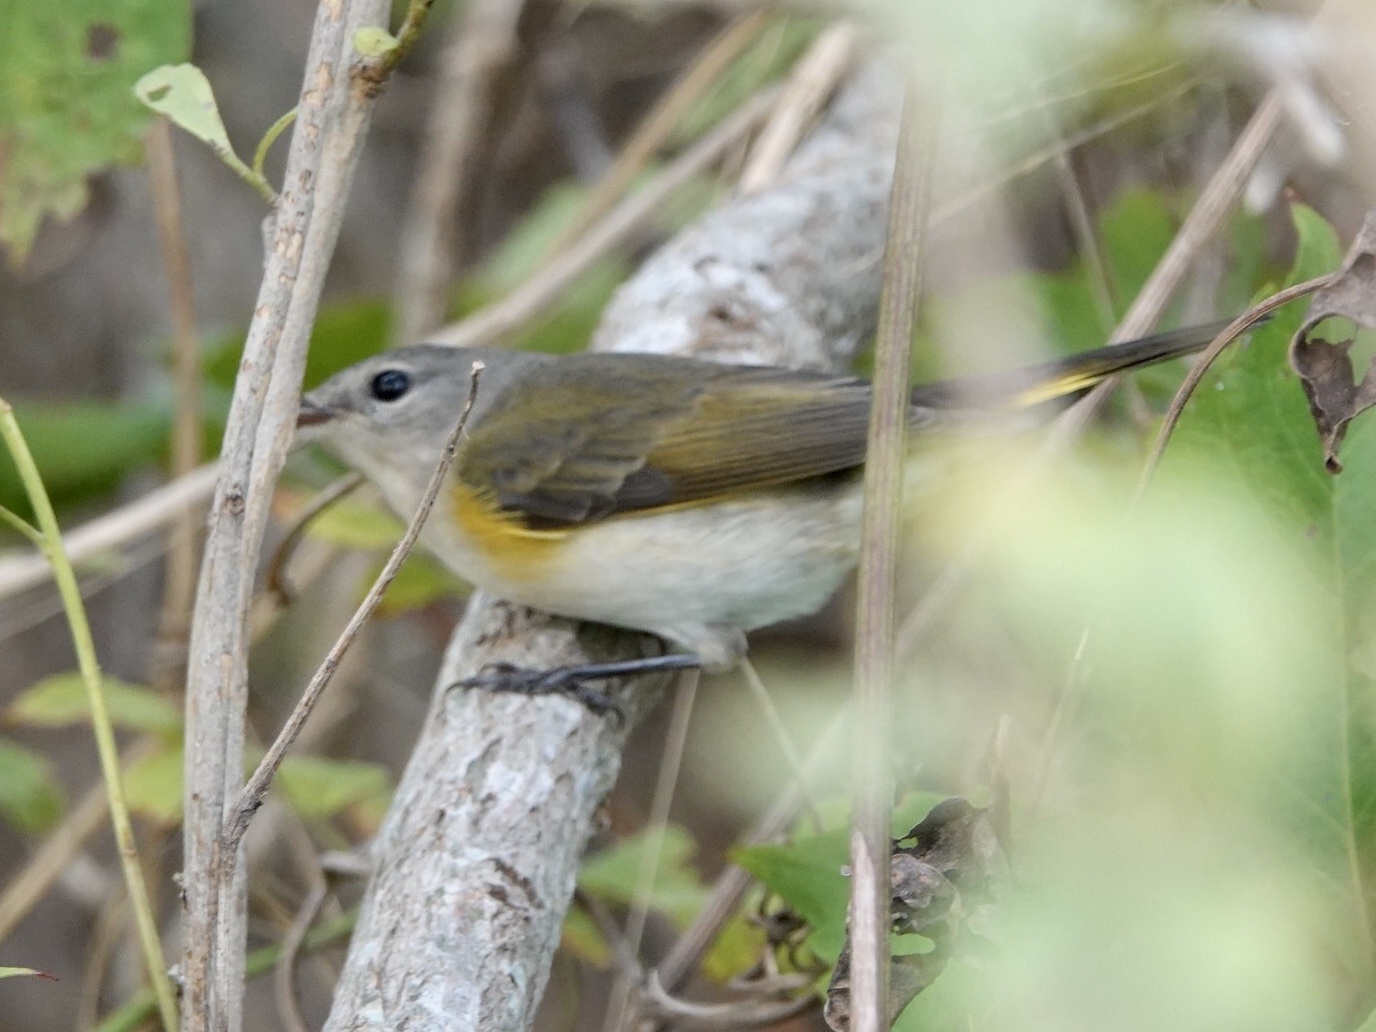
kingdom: Animalia
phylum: Chordata
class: Aves
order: Passeriformes
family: Parulidae
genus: Setophaga
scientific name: Setophaga ruticilla
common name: American redstart
